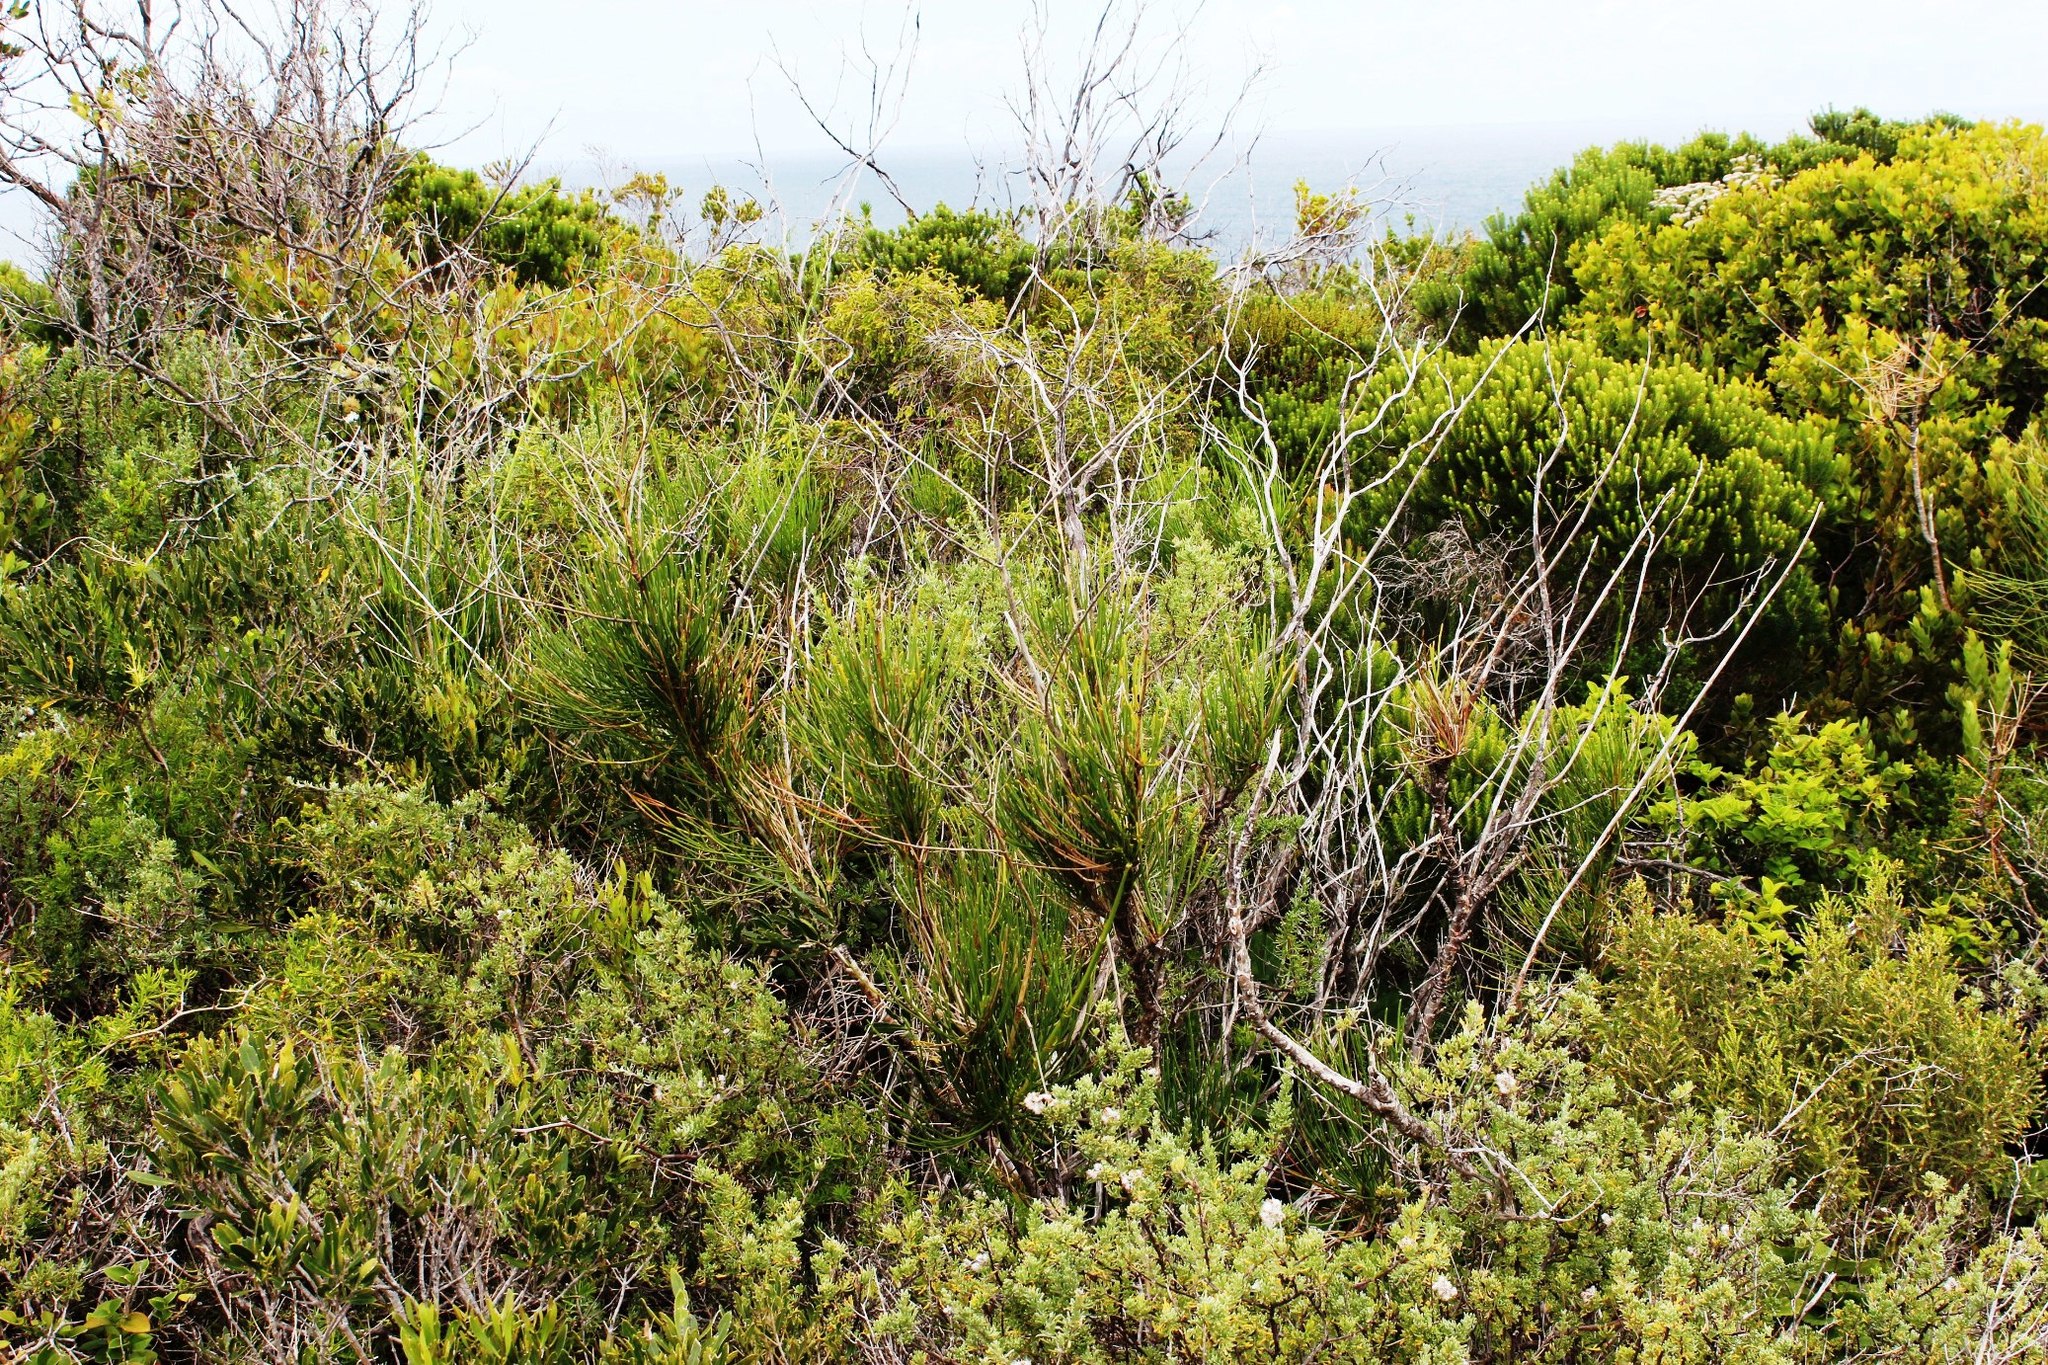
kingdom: Plantae
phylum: Tracheophyta
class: Magnoliopsida
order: Apiales
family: Apiaceae
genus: Anginon
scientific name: Anginon difforme
